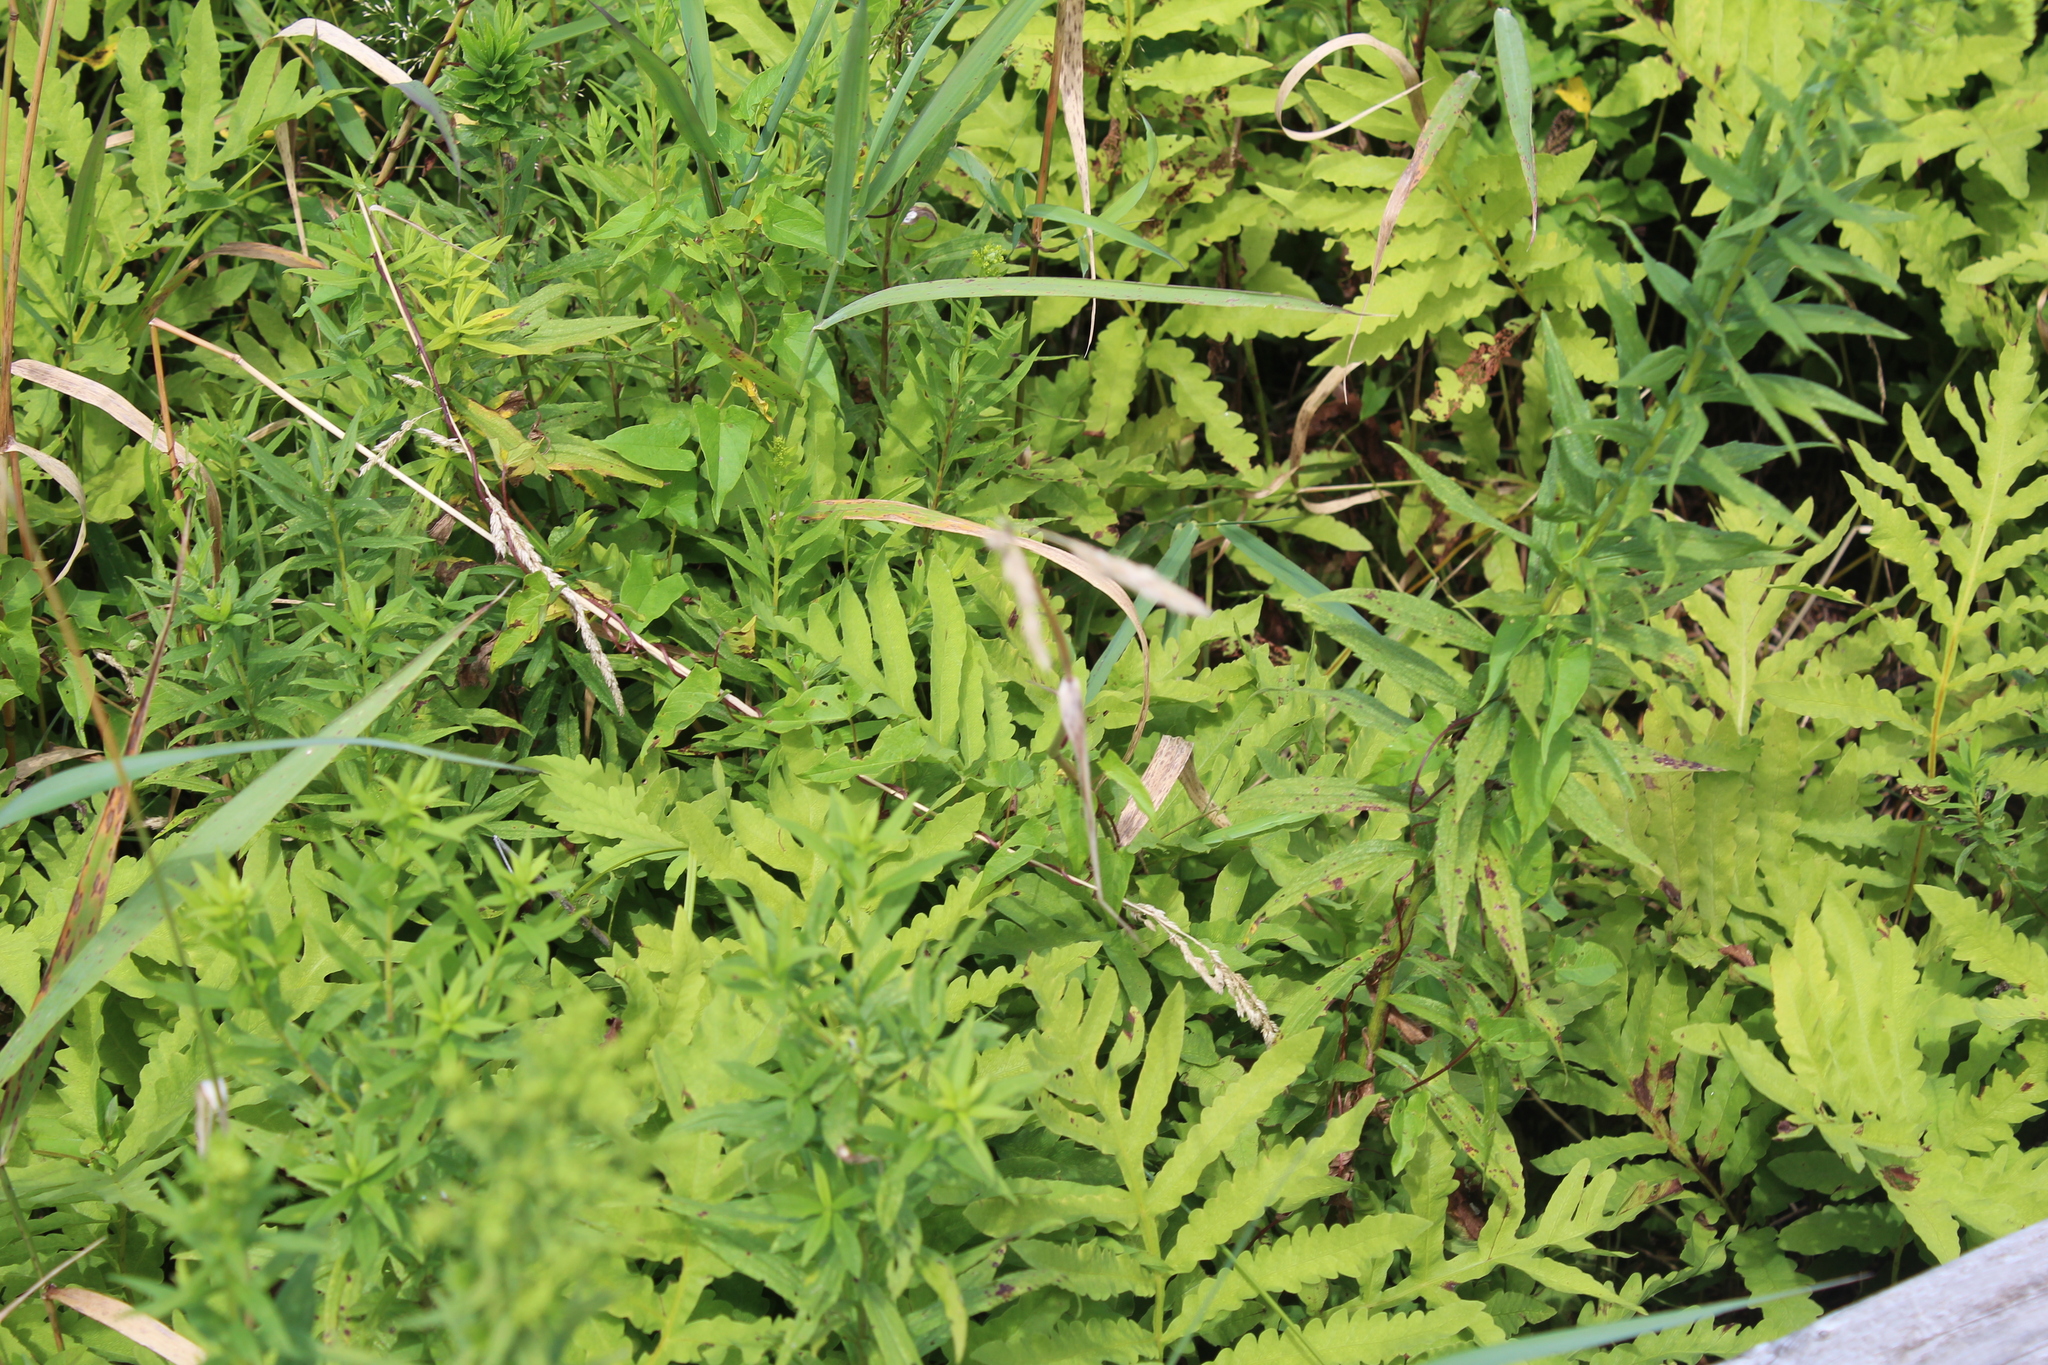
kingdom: Plantae
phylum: Tracheophyta
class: Polypodiopsida
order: Polypodiales
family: Onocleaceae
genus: Onoclea
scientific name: Onoclea sensibilis
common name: Sensitive fern
